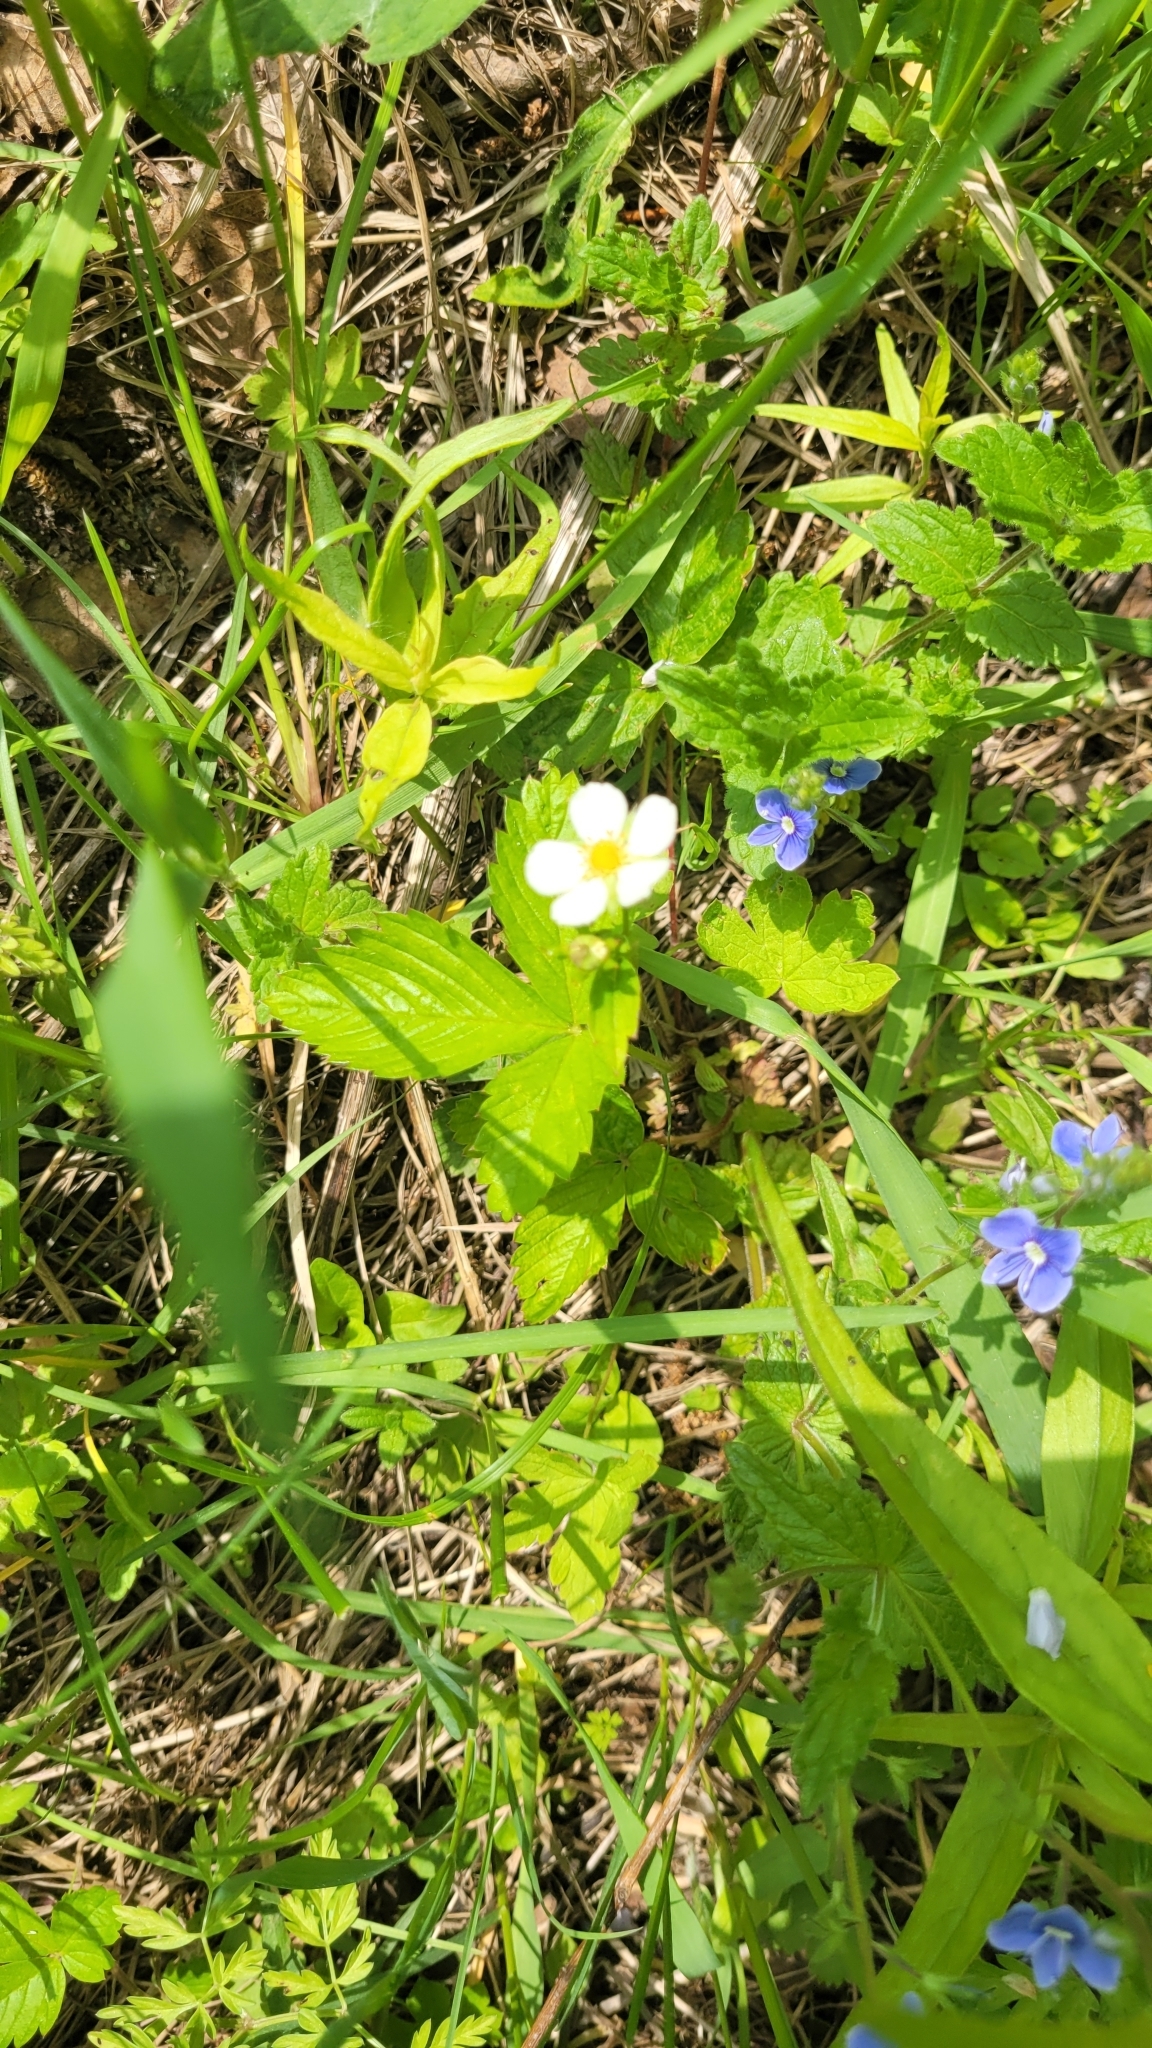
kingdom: Plantae
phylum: Tracheophyta
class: Magnoliopsida
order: Rosales
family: Rosaceae
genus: Fragaria
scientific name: Fragaria vesca
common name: Wild strawberry
